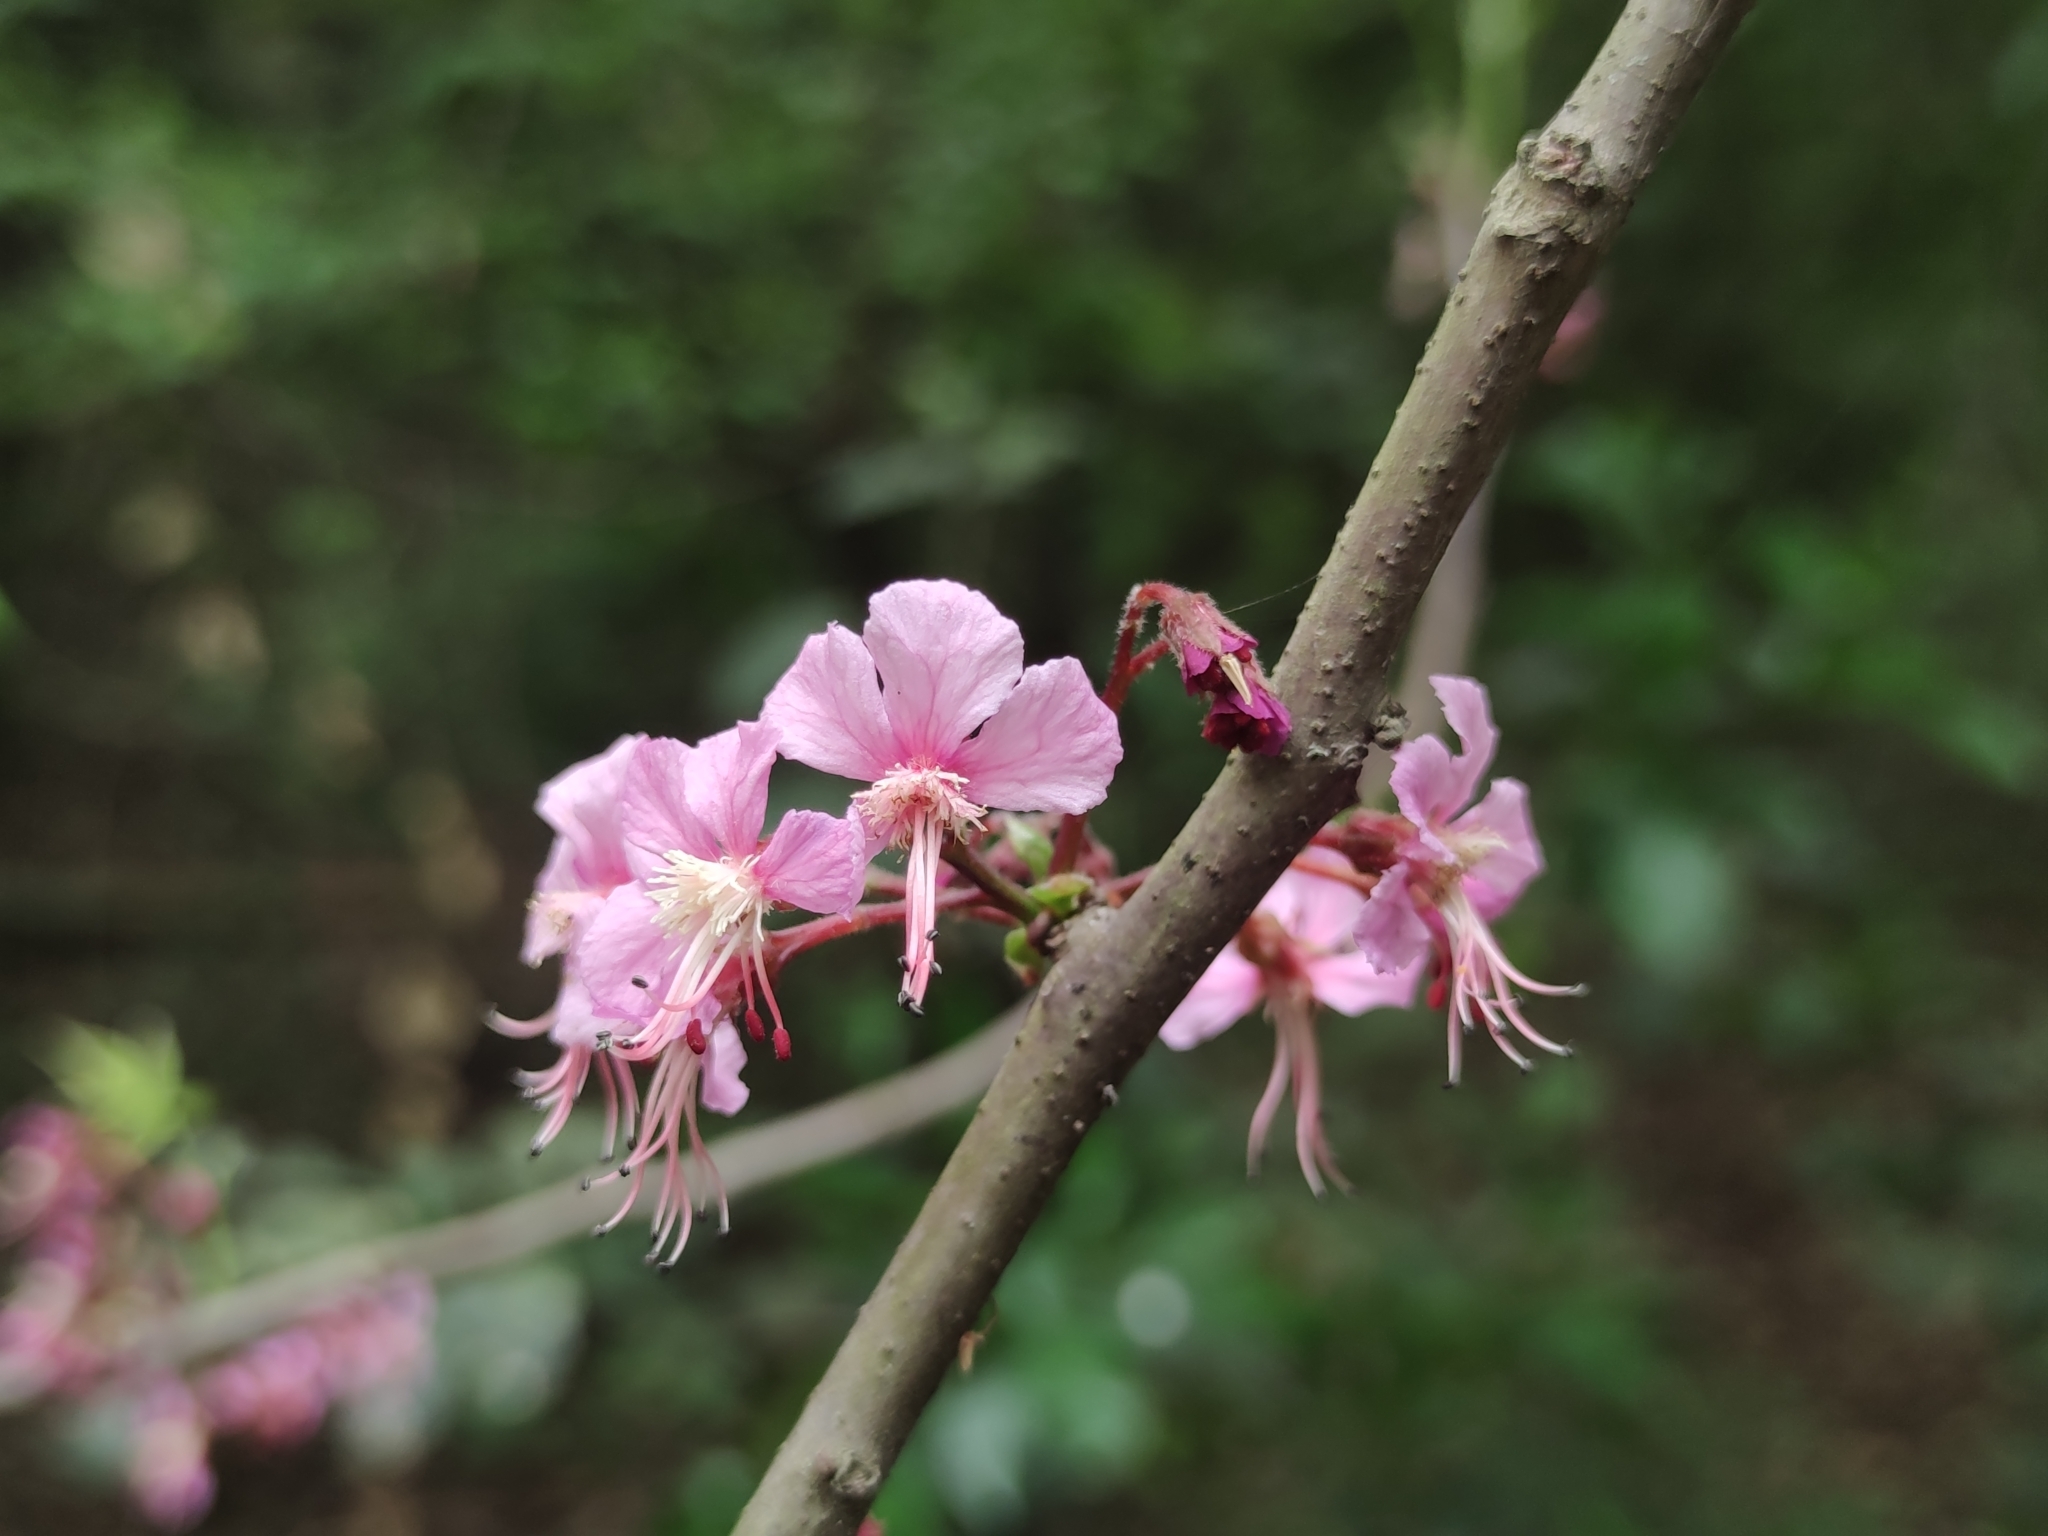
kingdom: Plantae
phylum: Tracheophyta
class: Magnoliopsida
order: Sapindales
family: Sapindaceae
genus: Ungnadia
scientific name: Ungnadia speciosa
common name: Texas-buckeye
